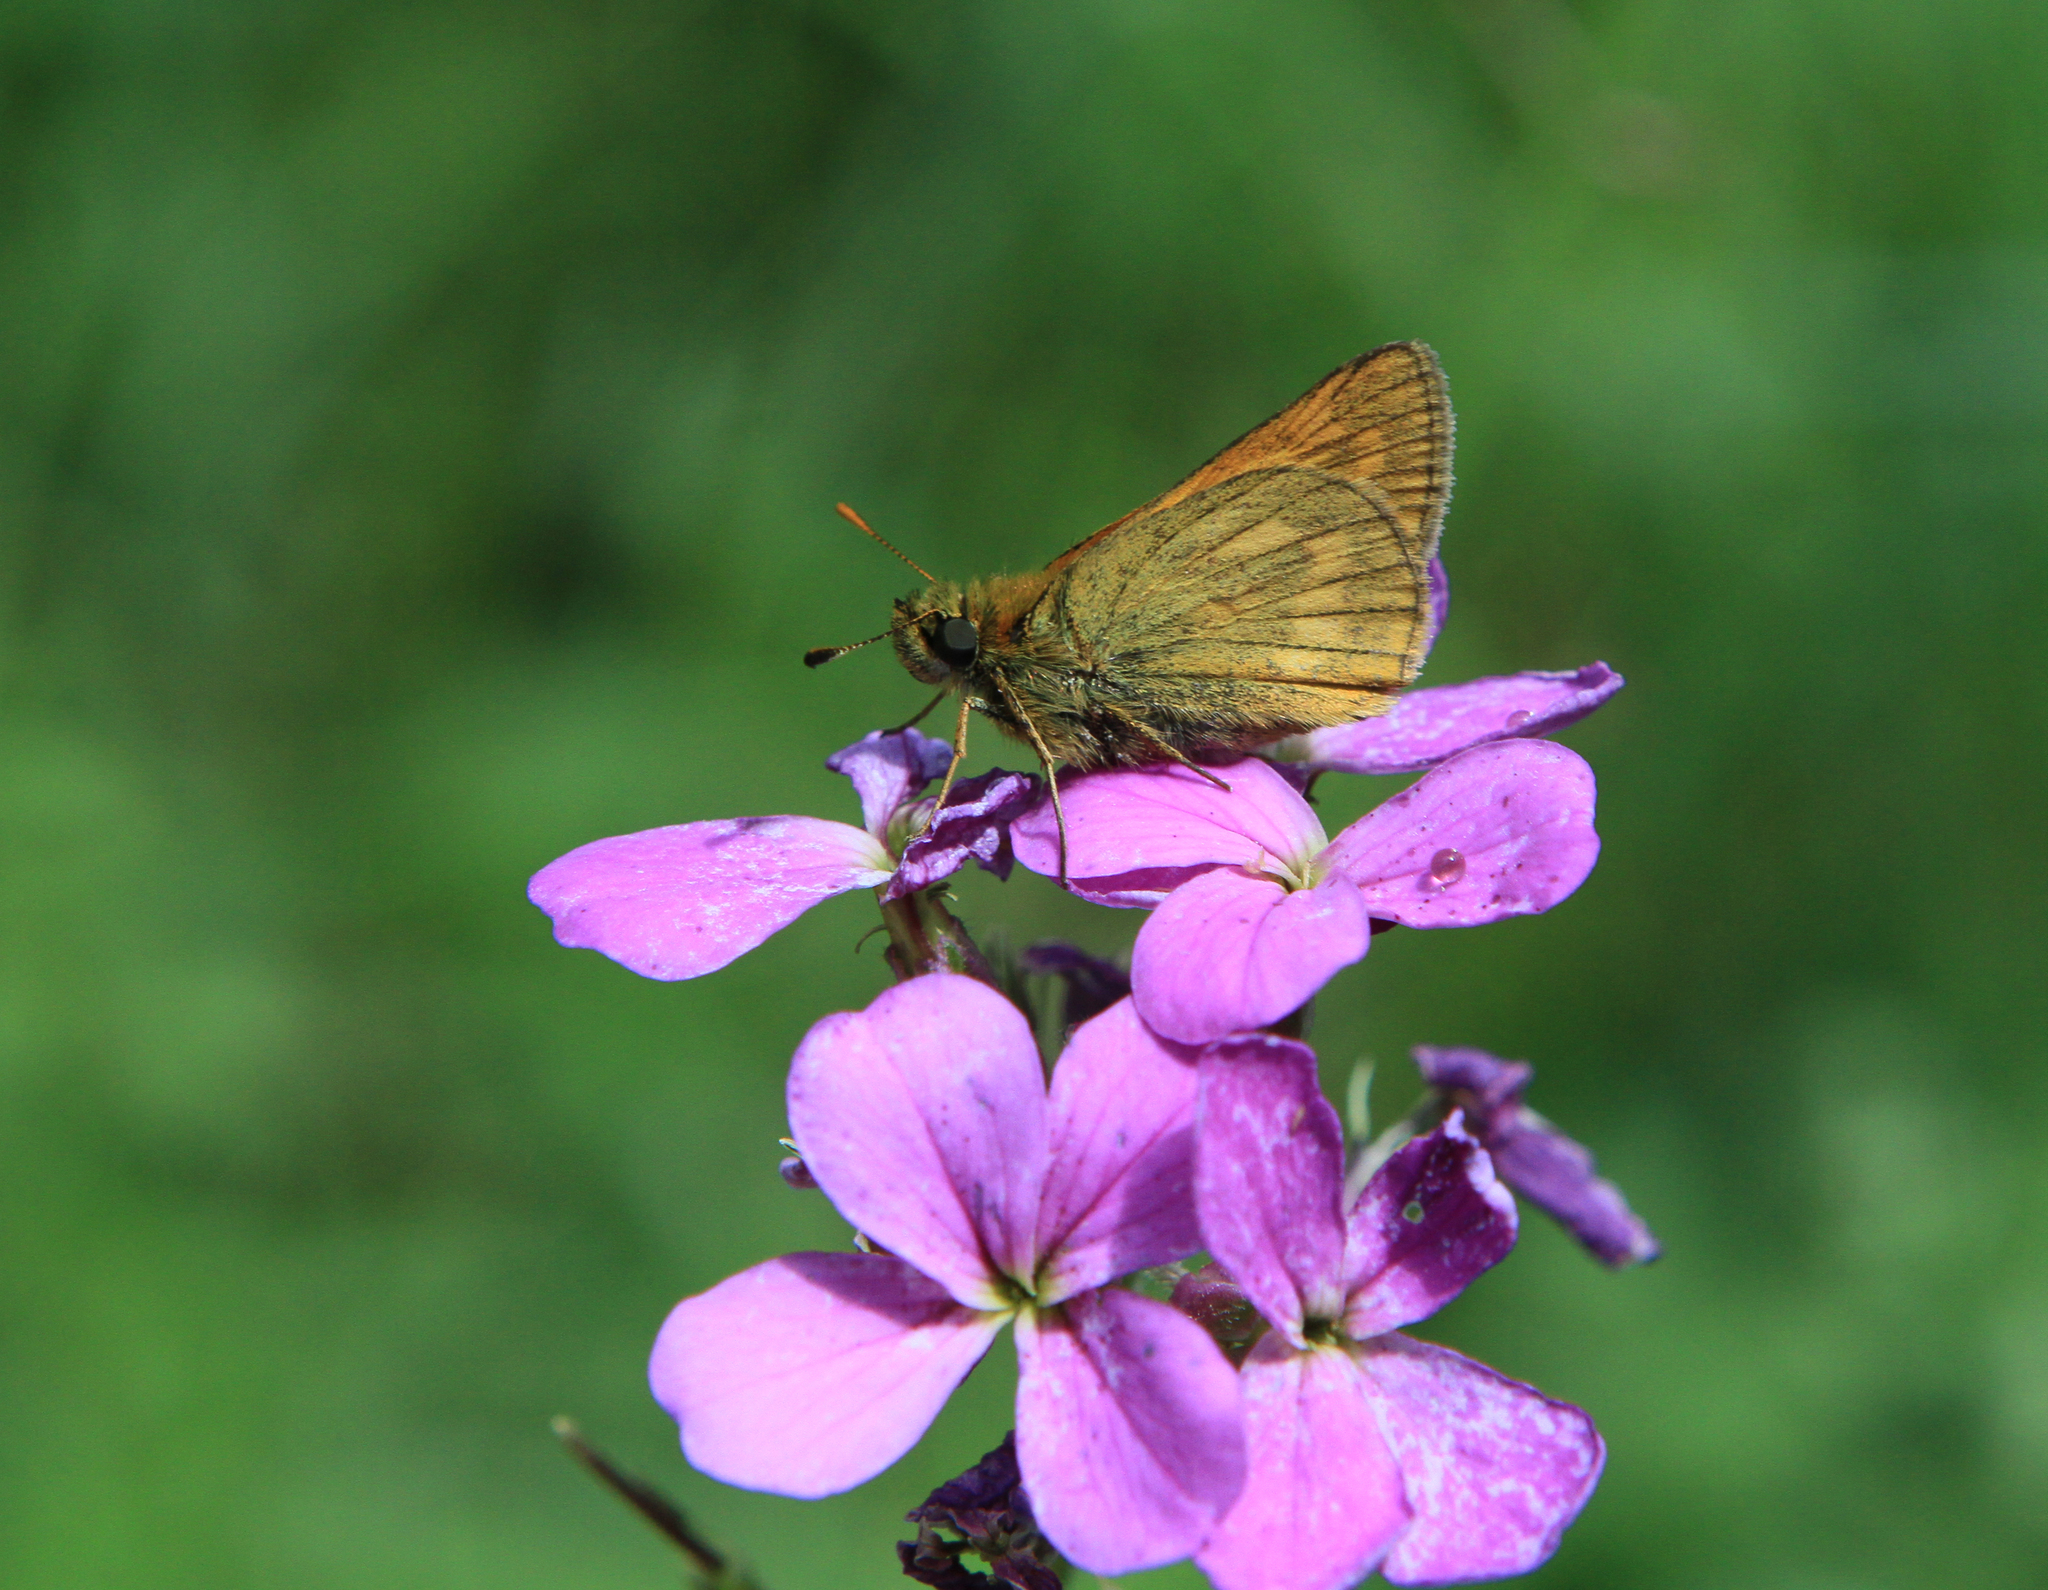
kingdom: Animalia
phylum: Arthropoda
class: Insecta
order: Lepidoptera
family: Hesperiidae
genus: Ochlodes
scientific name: Ochlodes venata
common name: Large skipper
